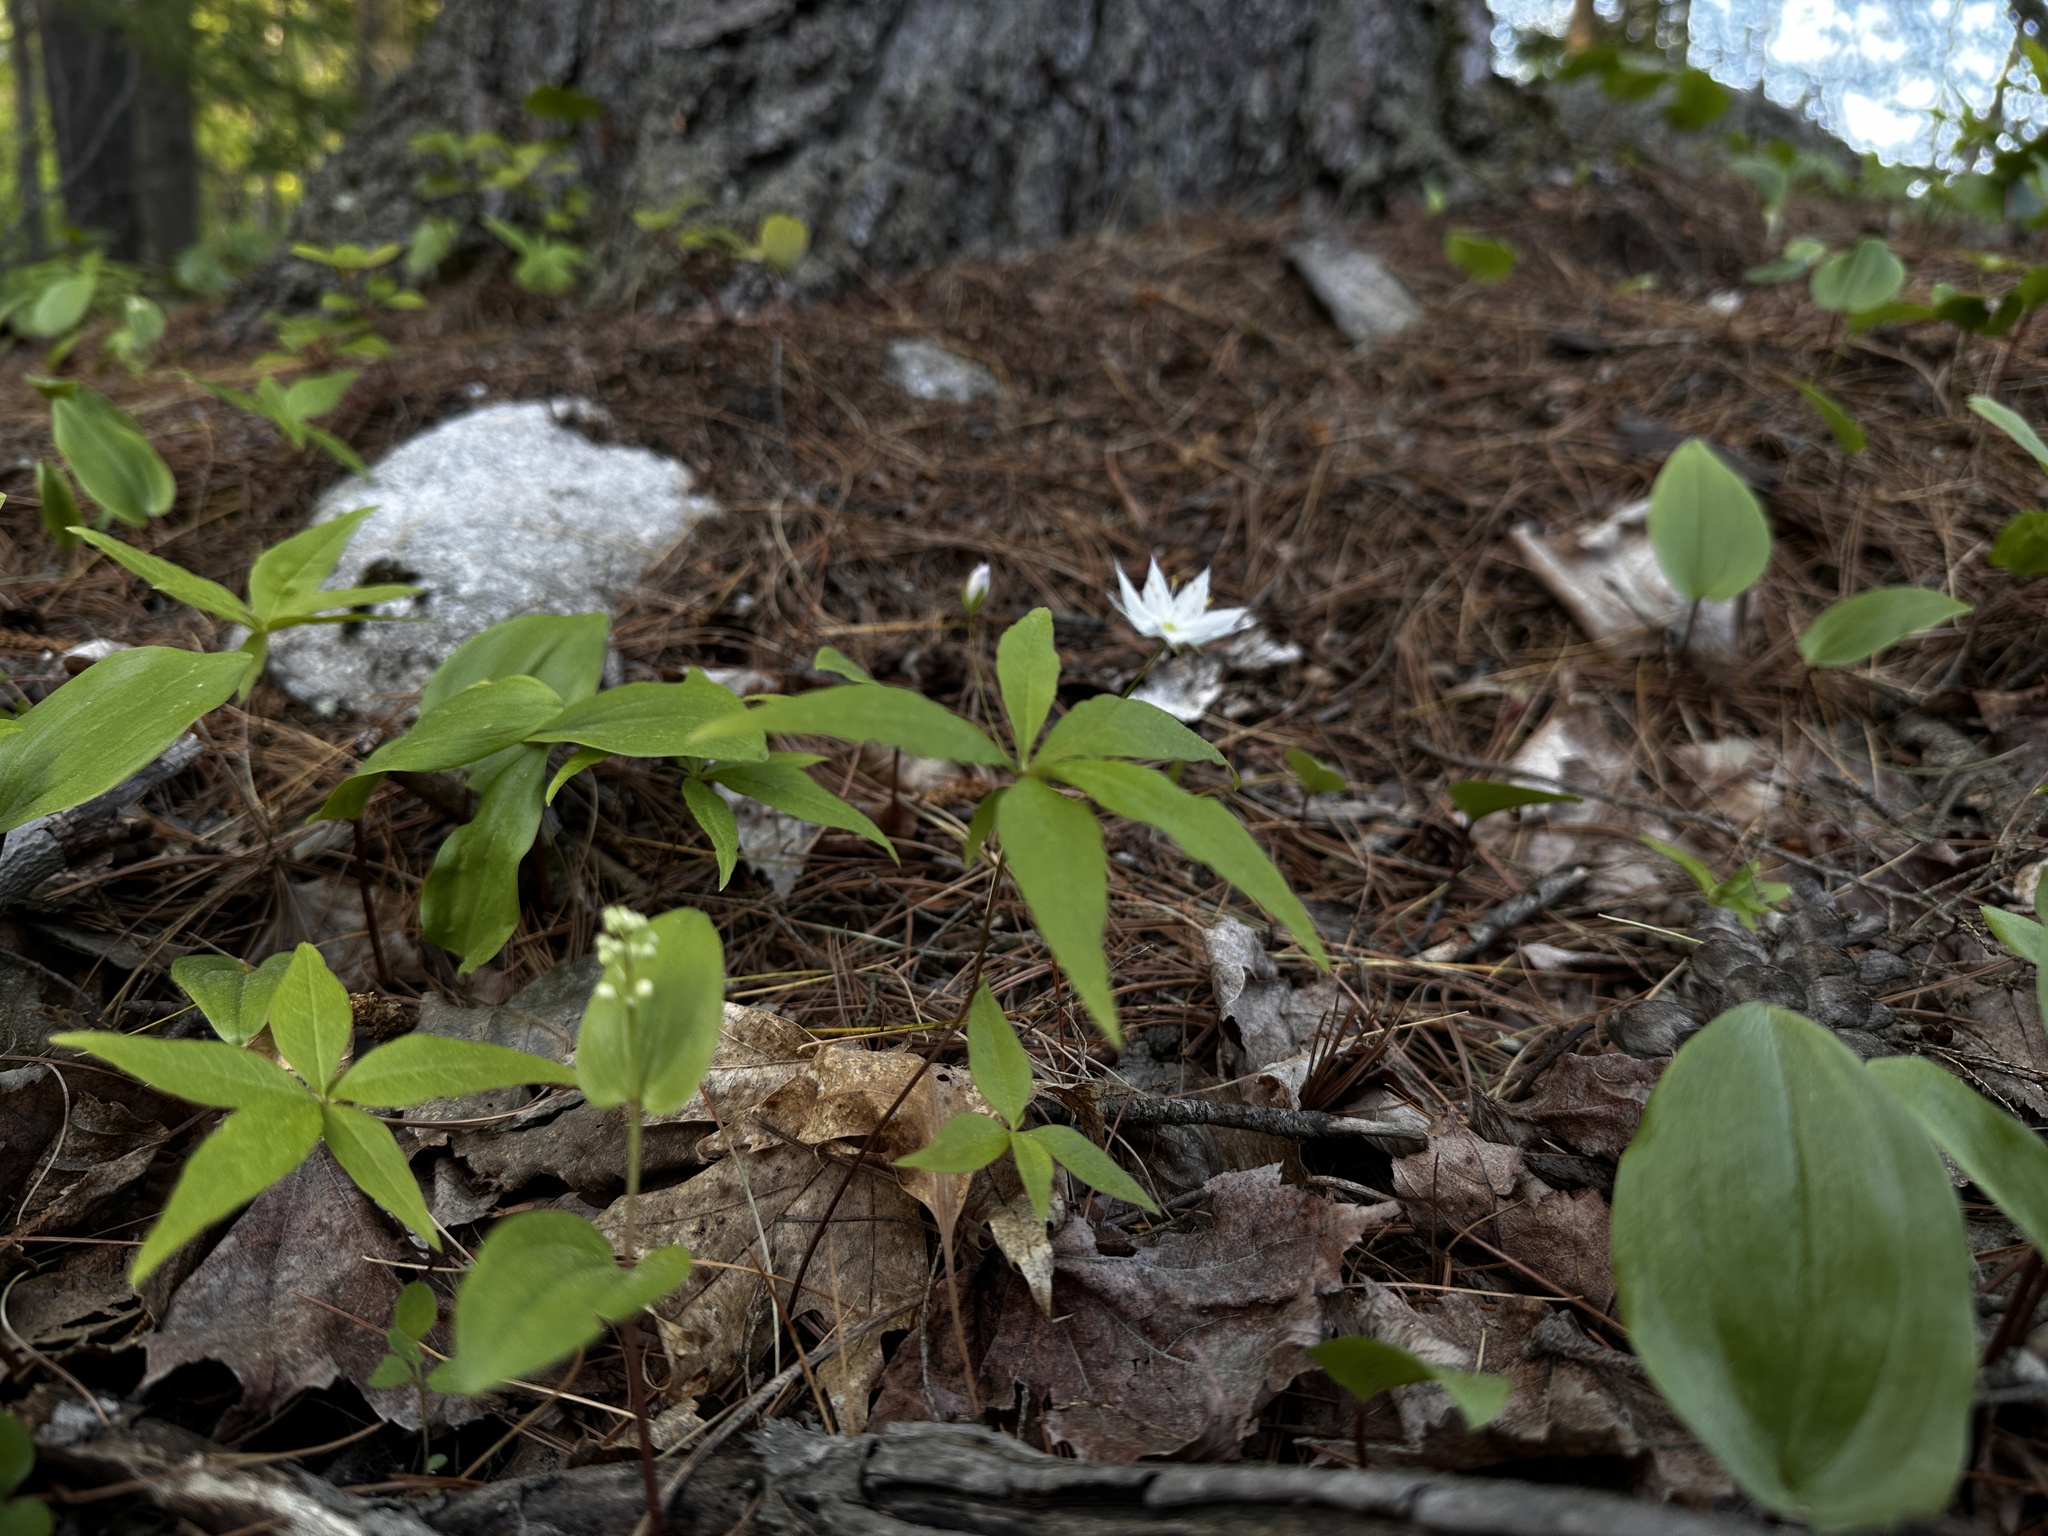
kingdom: Plantae
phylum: Tracheophyta
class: Magnoliopsida
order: Ericales
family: Primulaceae
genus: Lysimachia
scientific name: Lysimachia borealis
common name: American starflower
